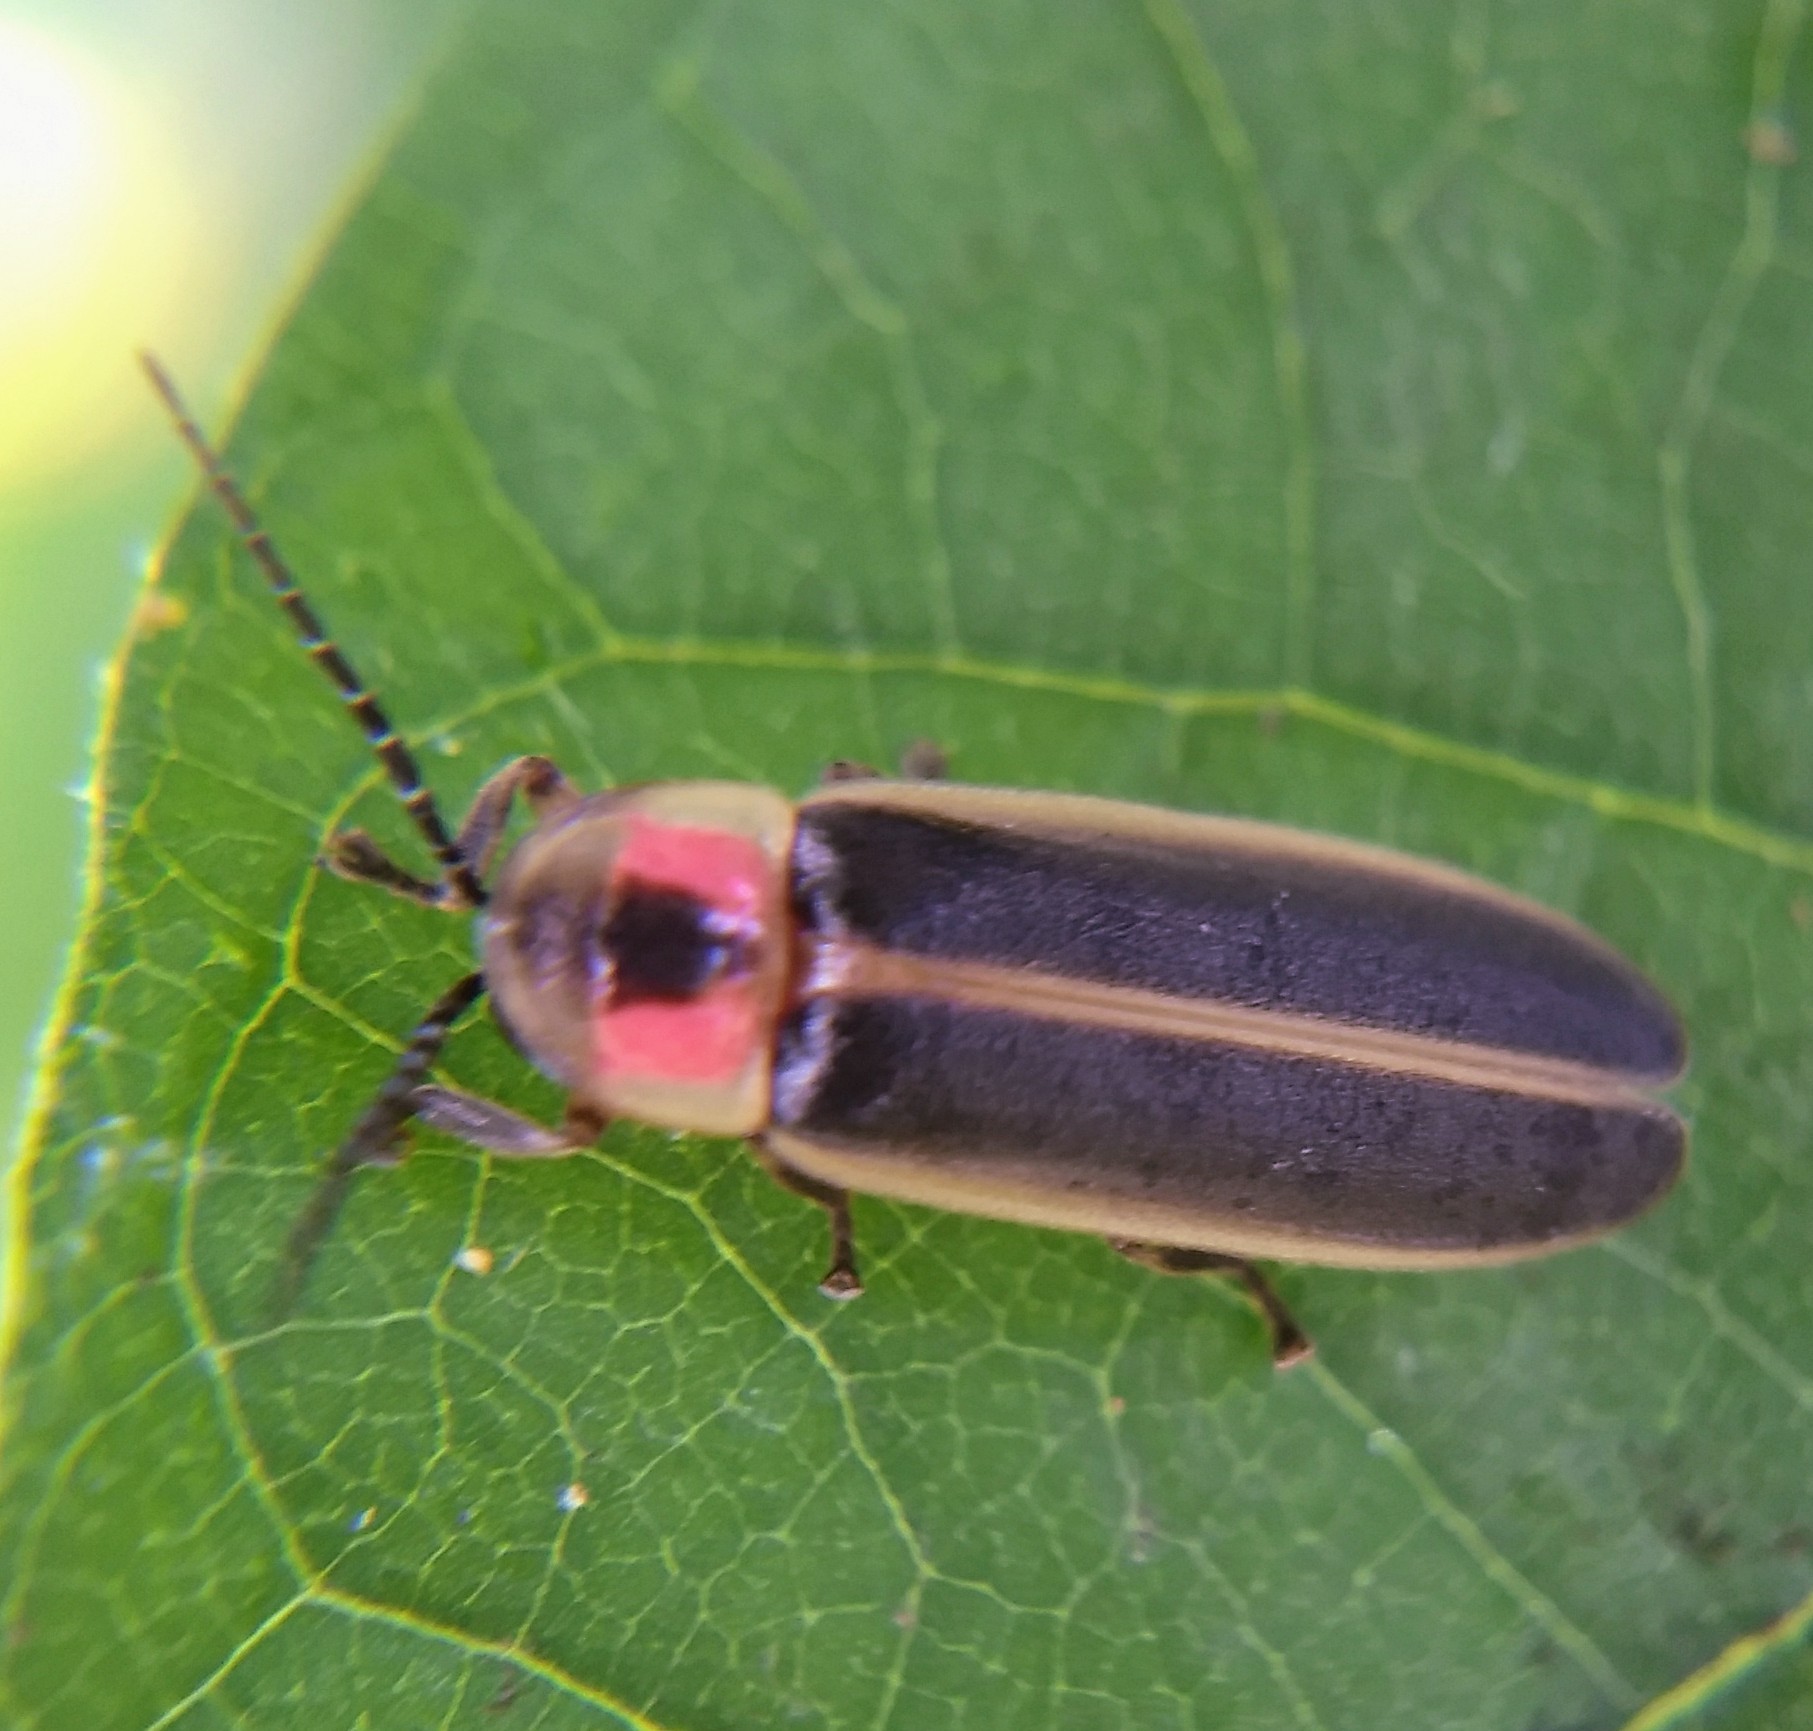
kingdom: Animalia
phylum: Arthropoda
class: Insecta
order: Coleoptera
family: Lampyridae
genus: Photinus
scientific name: Photinus pyralis
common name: Big dipper firefly
